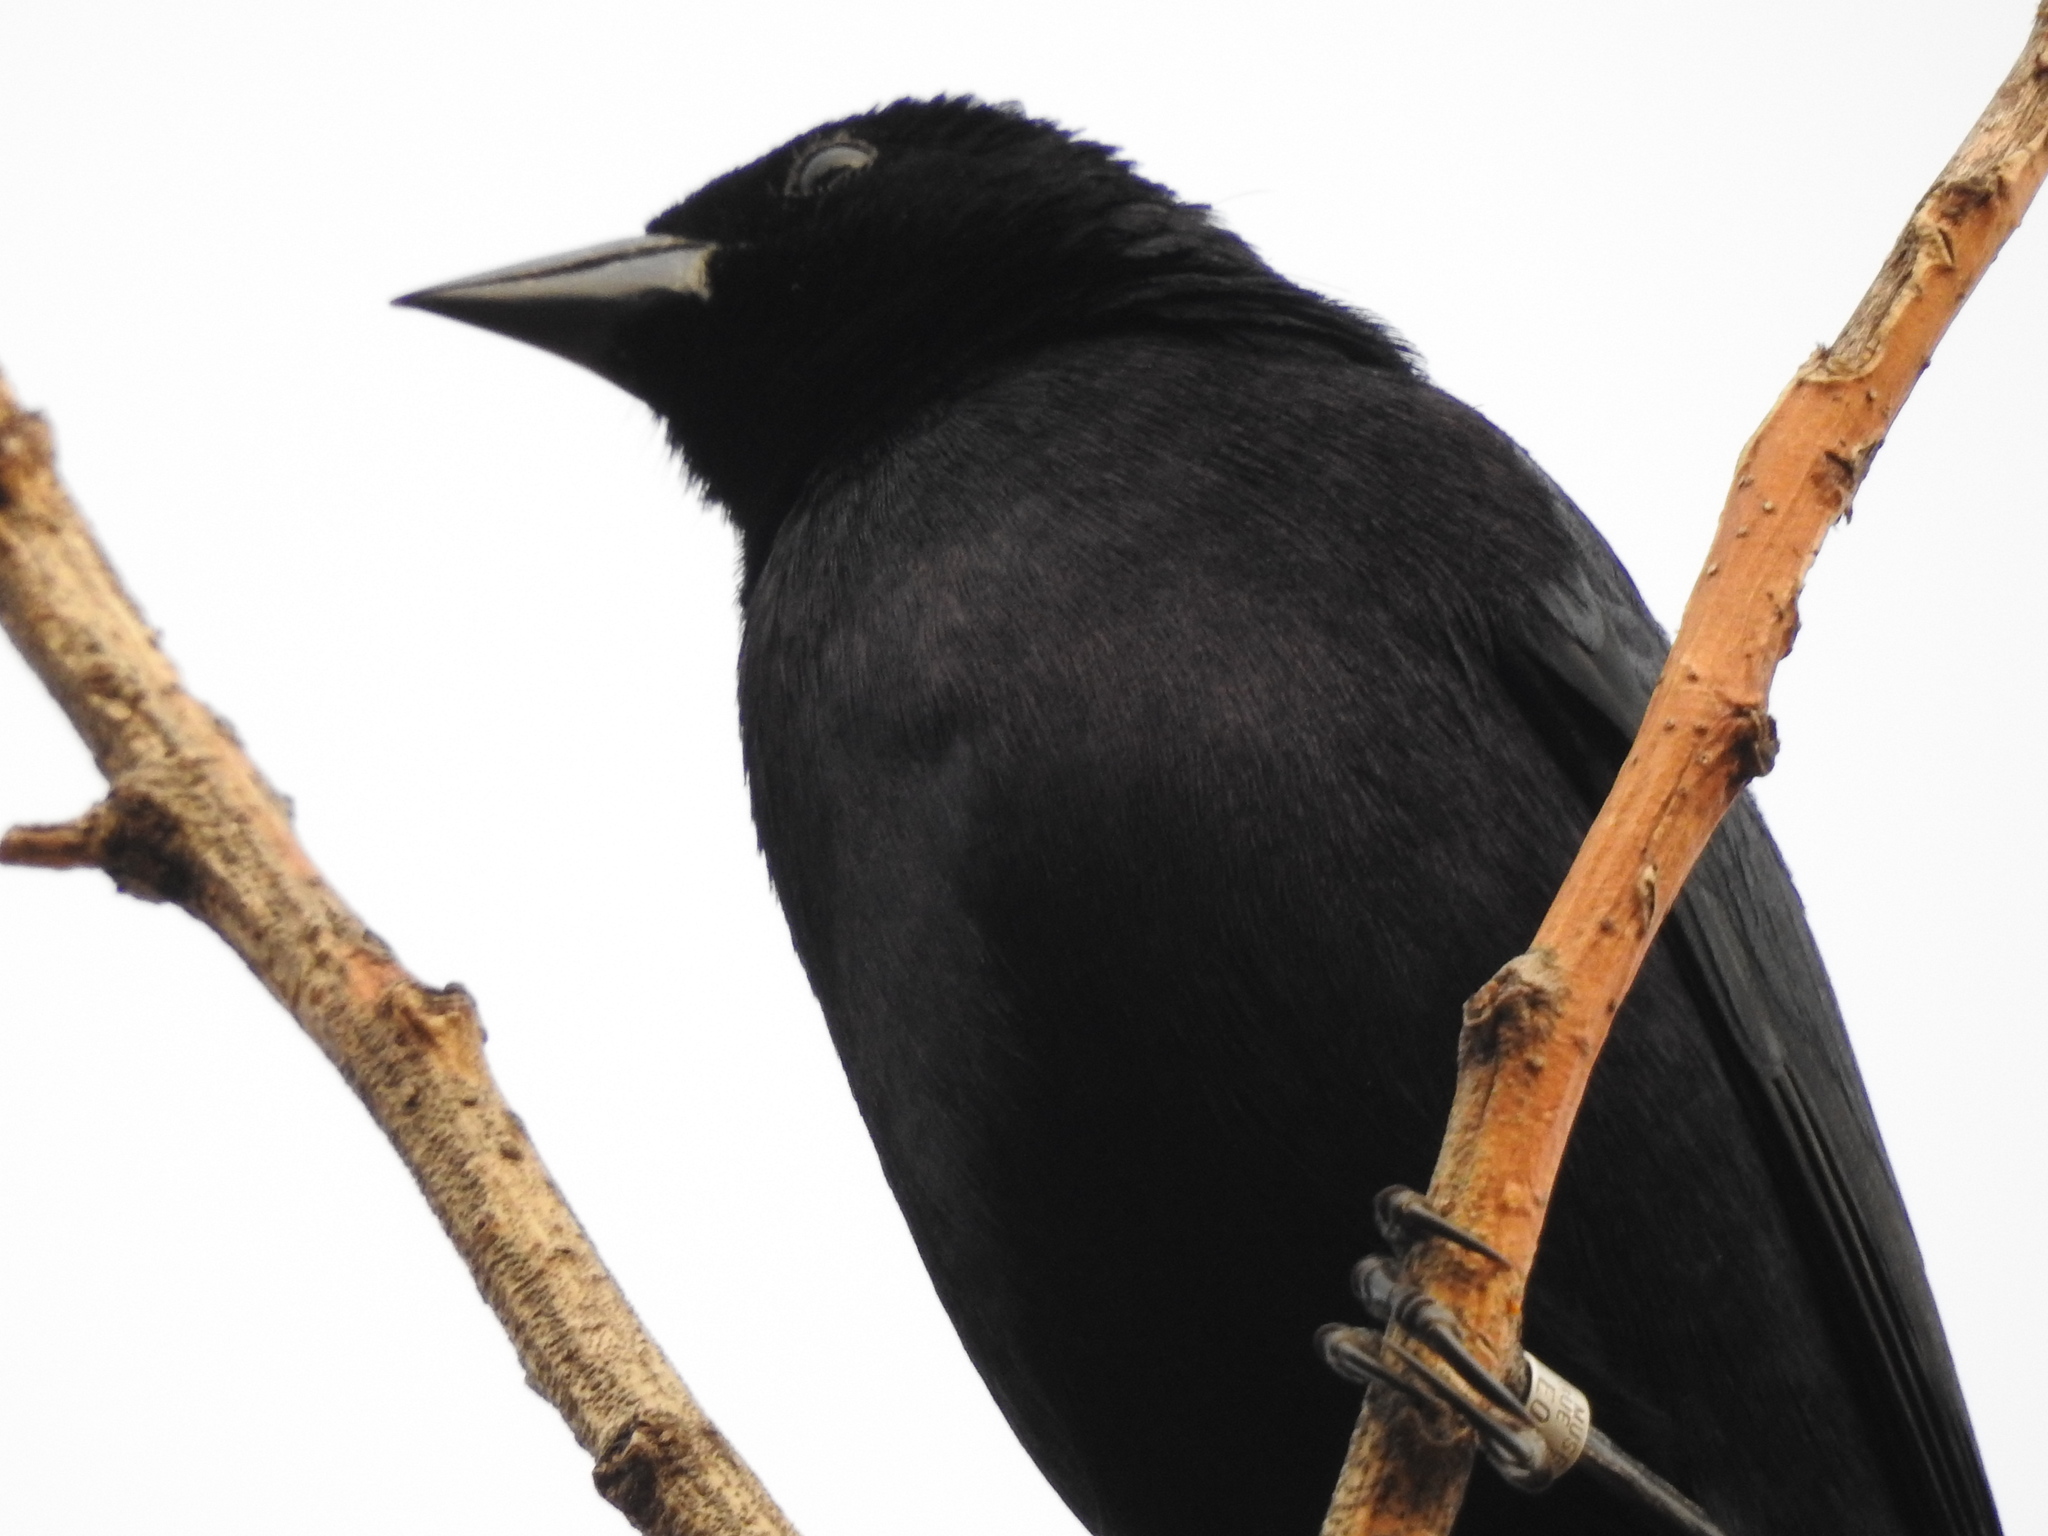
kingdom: Animalia
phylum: Chordata
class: Aves
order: Passeriformes
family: Icteridae
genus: Molothrus
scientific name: Molothrus bonariensis
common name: Shiny cowbird
